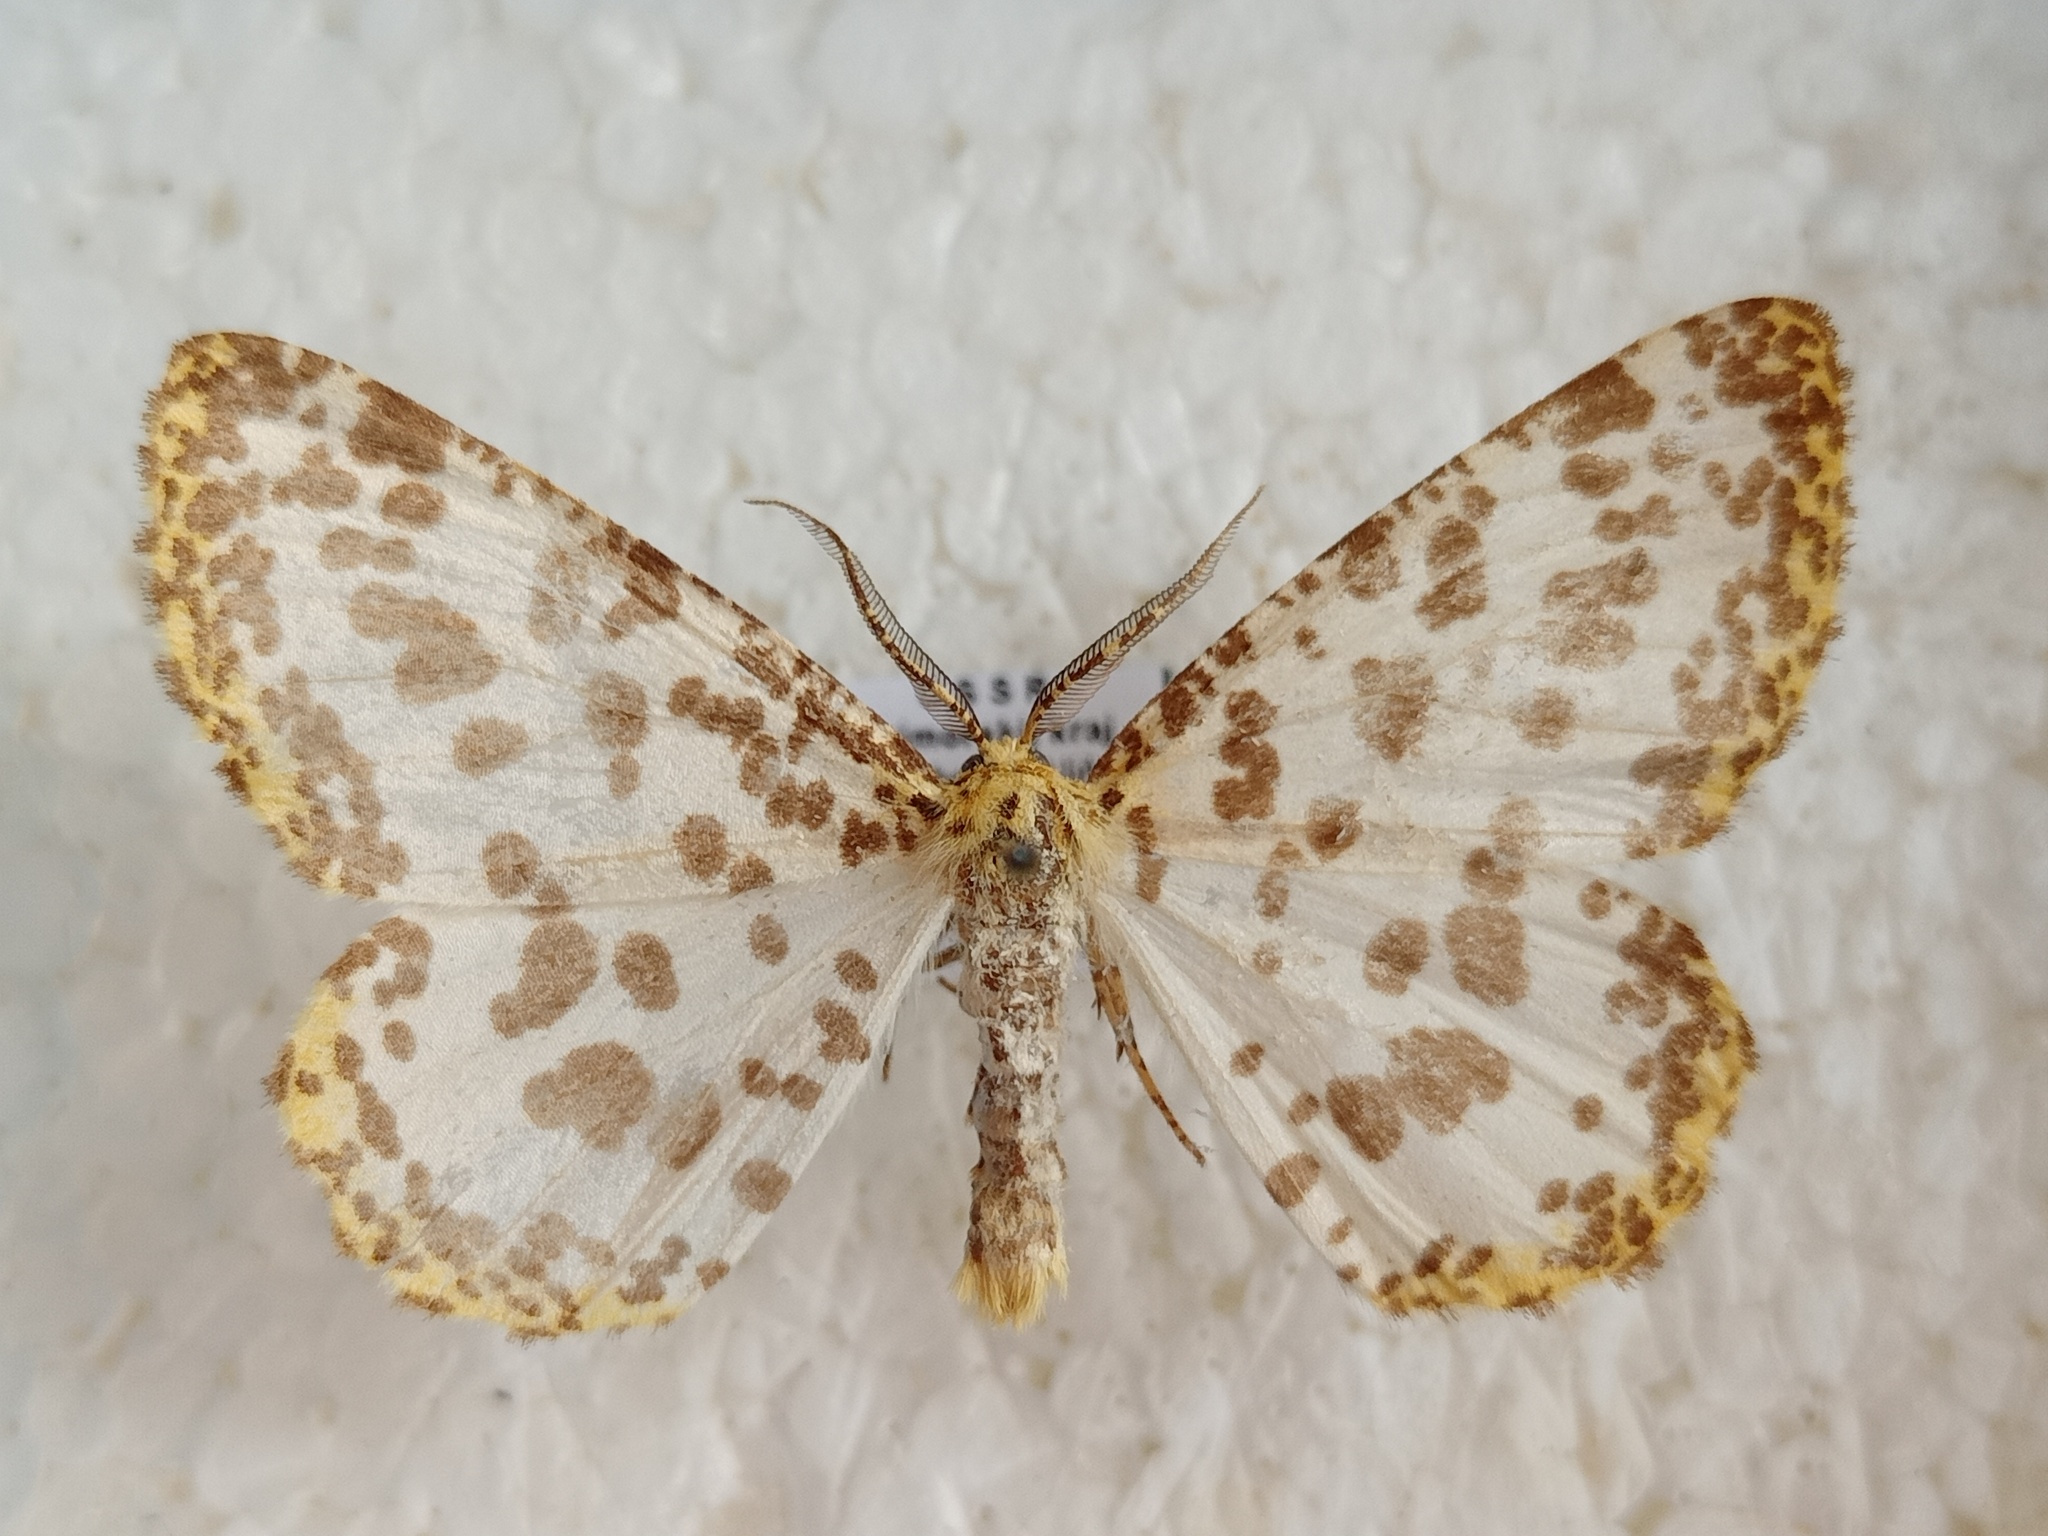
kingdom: Animalia
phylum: Arthropoda
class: Insecta
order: Lepidoptera
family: Geometridae
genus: Diaprepesilla
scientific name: Diaprepesilla flavomarginaria
